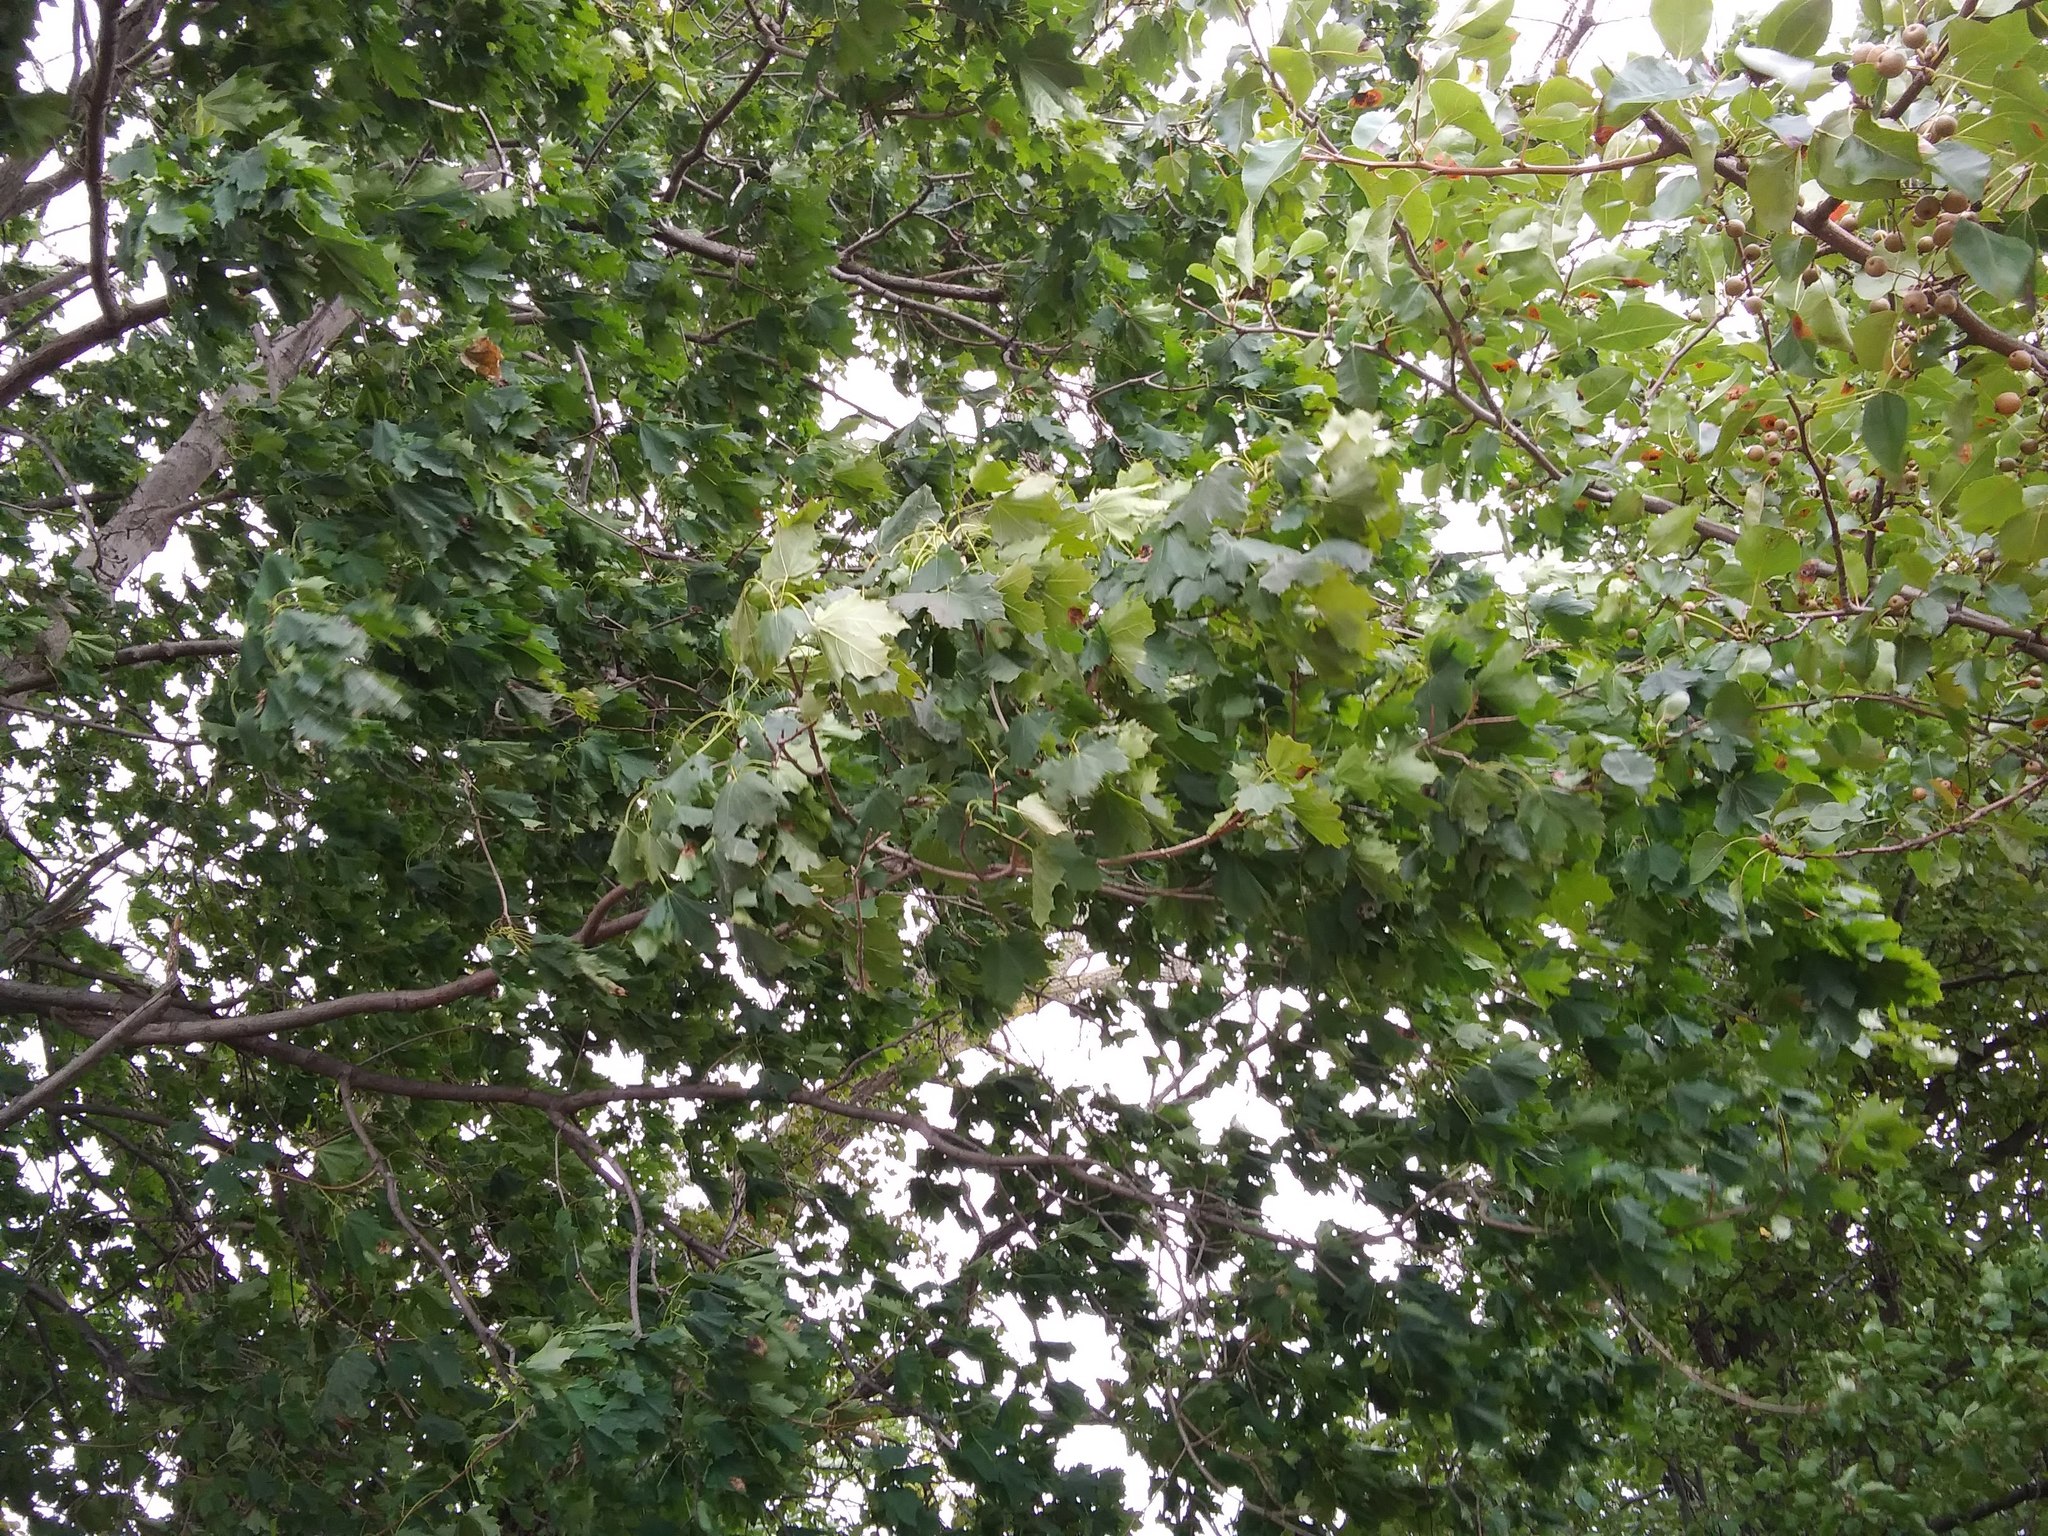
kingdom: Plantae
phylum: Tracheophyta
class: Magnoliopsida
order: Rosales
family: Rosaceae
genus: Pyrus
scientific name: Pyrus calleryana
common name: Callery pear
